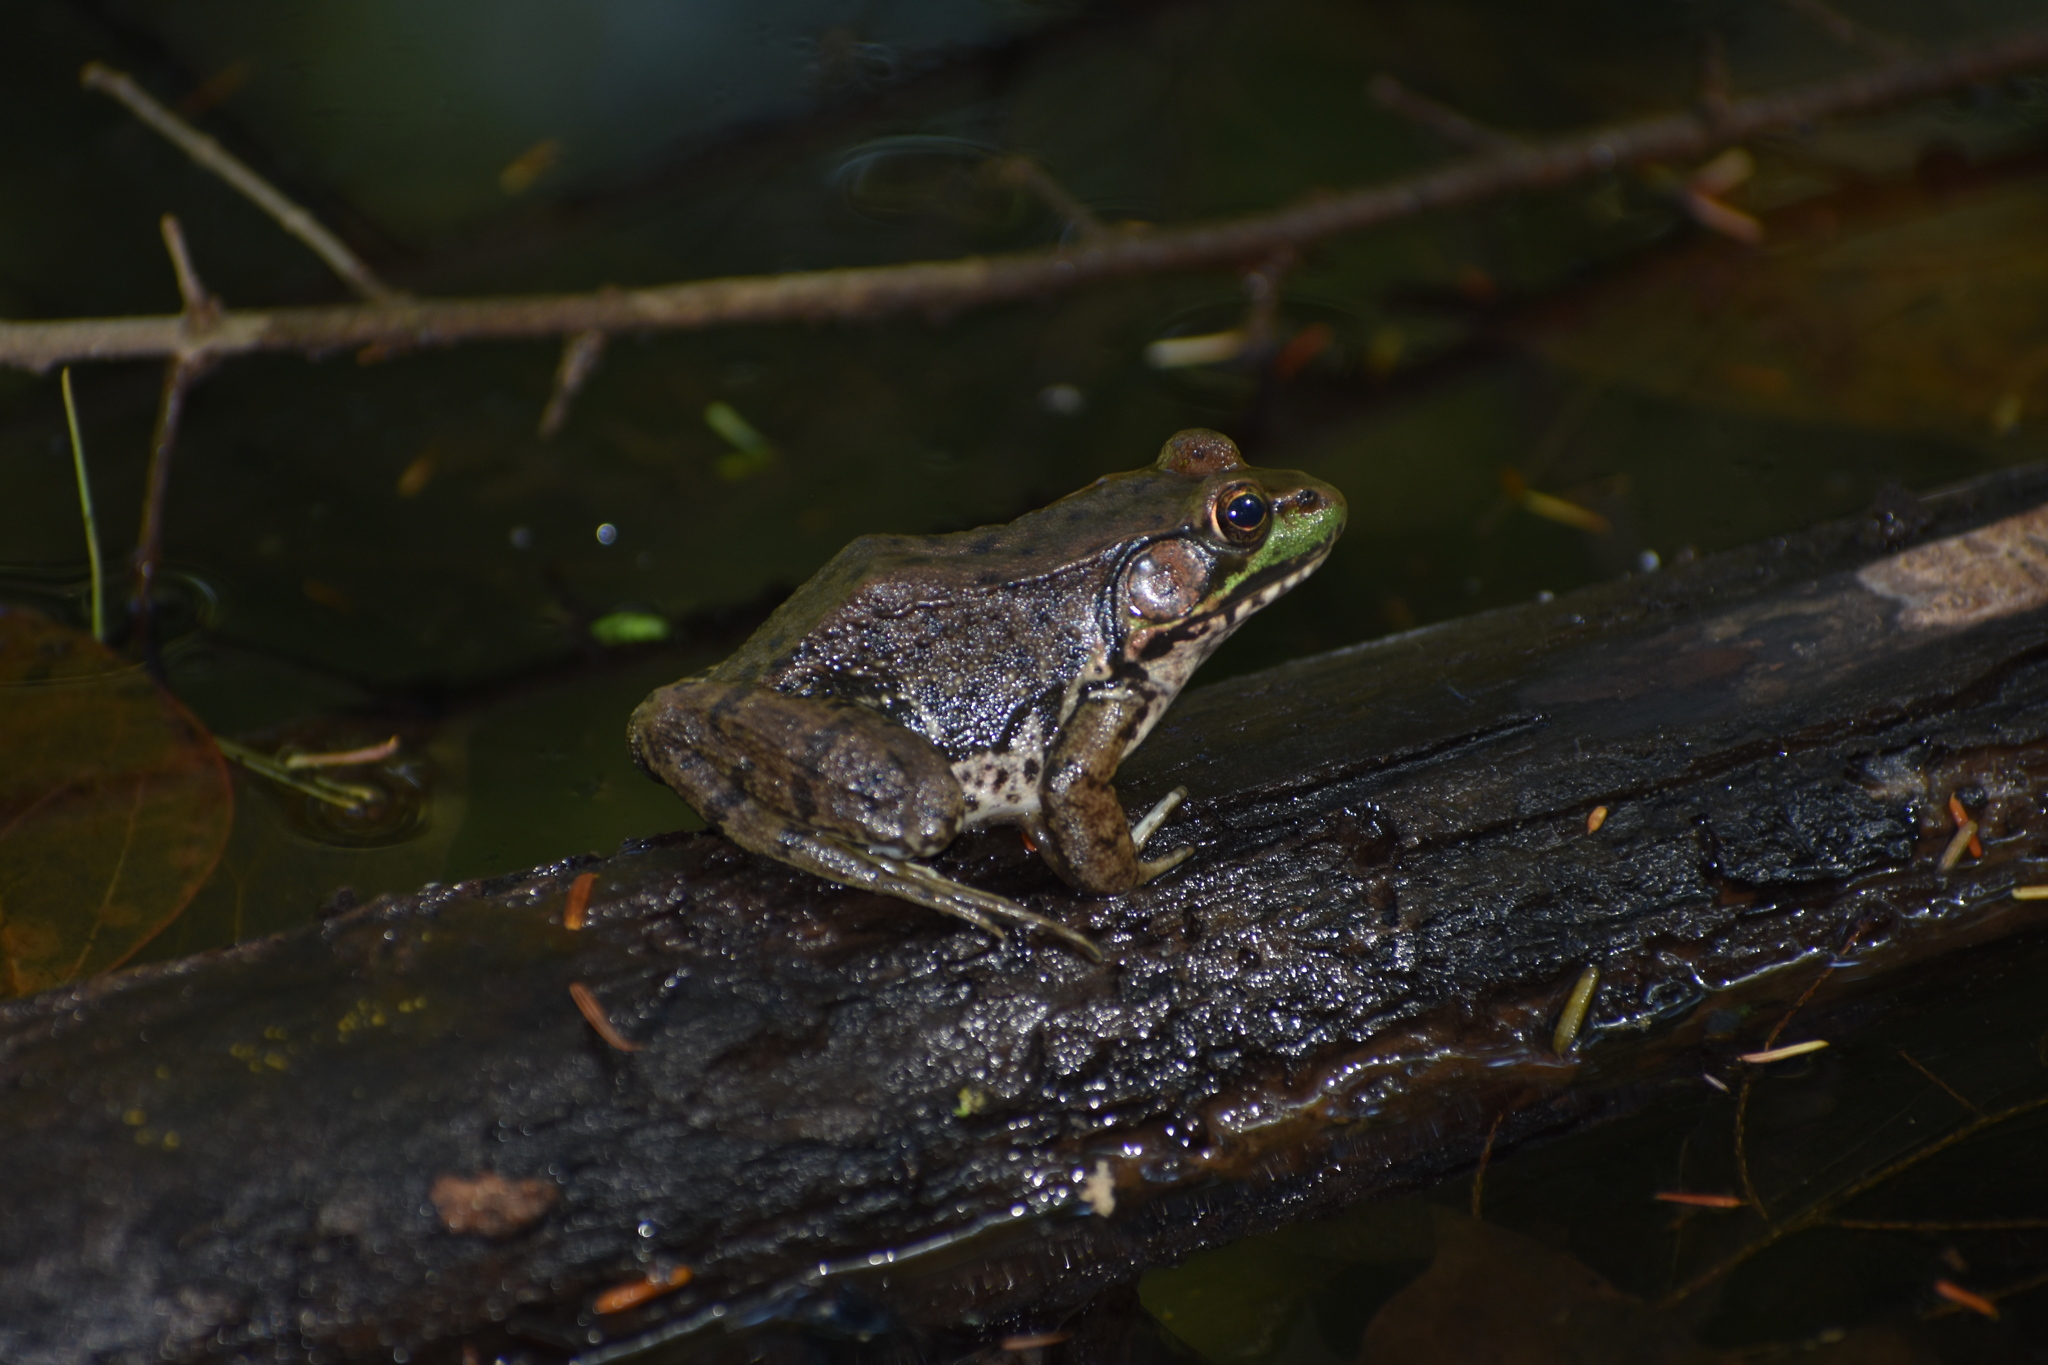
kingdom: Animalia
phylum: Chordata
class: Amphibia
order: Anura
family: Ranidae
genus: Lithobates
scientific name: Lithobates clamitans
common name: Green frog
